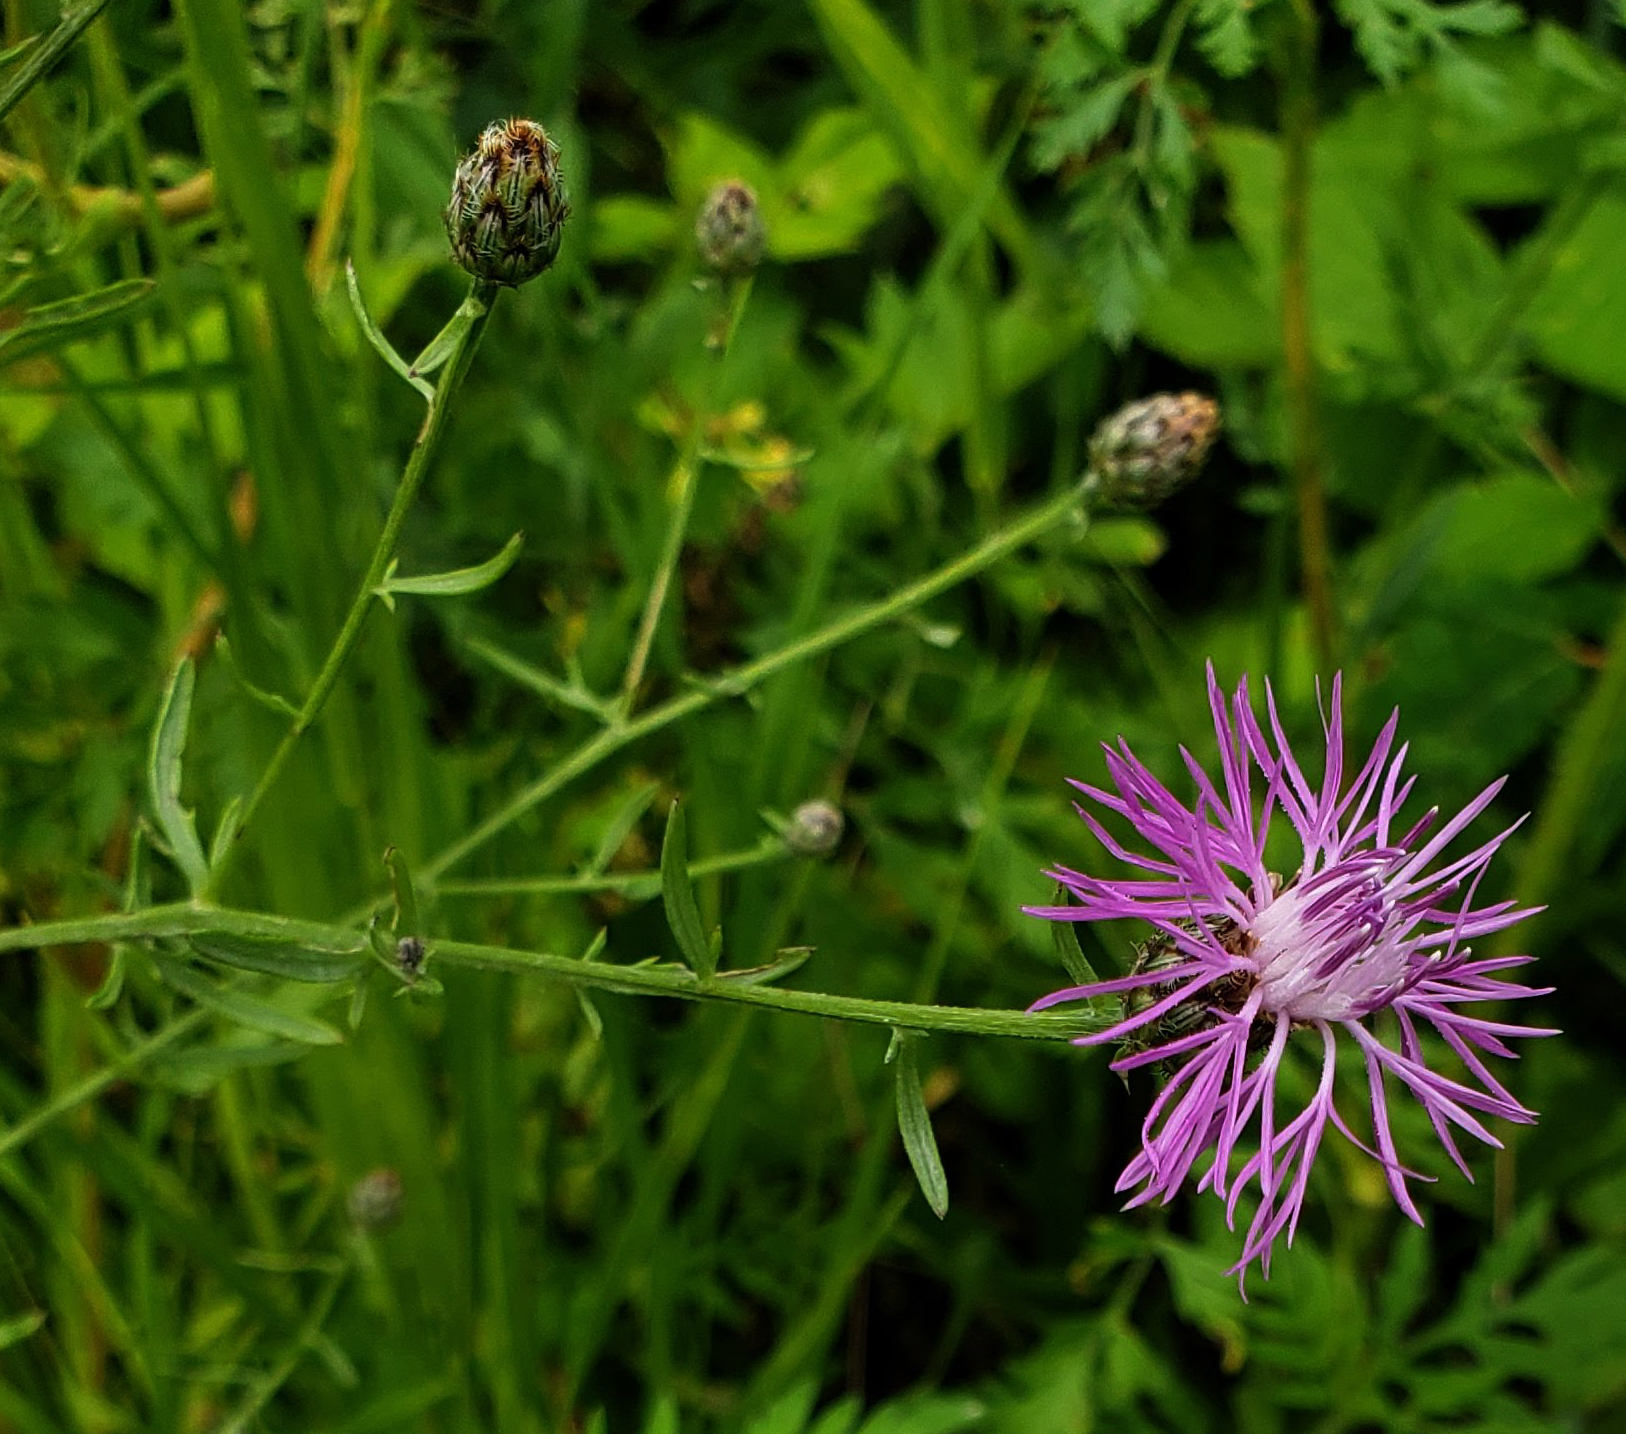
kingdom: Plantae
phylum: Tracheophyta
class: Magnoliopsida
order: Asterales
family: Asteraceae
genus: Centaurea
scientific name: Centaurea stoebe
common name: Spotted knapweed
